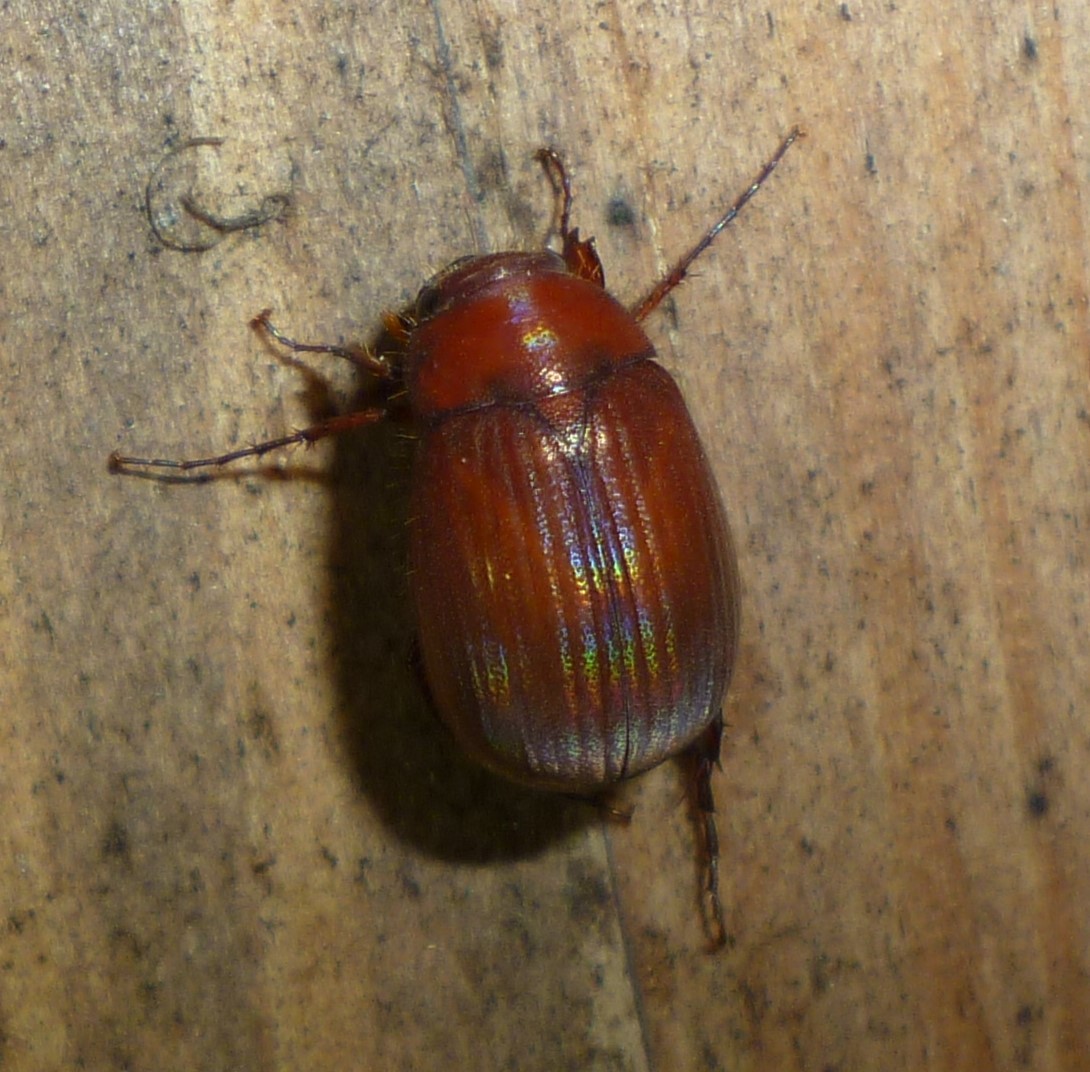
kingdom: Animalia
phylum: Arthropoda
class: Insecta
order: Coleoptera
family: Scarabaeidae
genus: Maladera
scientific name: Maladera formosae
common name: Asiatic garden beetle
